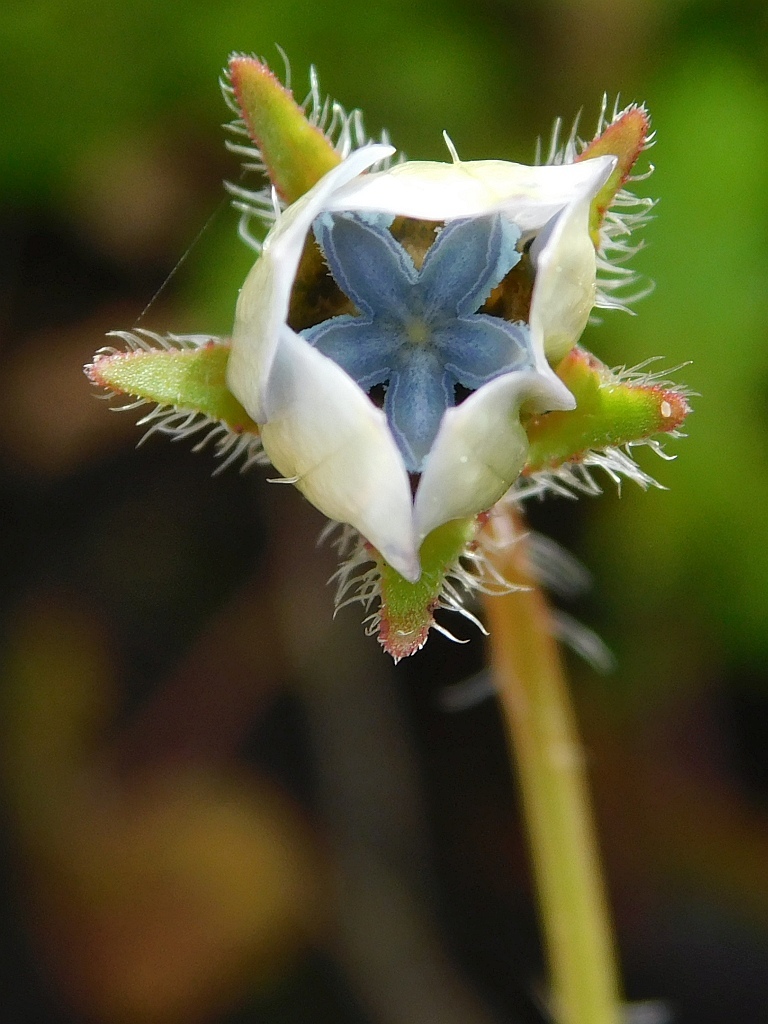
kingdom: Plantae
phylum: Tracheophyta
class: Magnoliopsida
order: Asterales
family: Campanulaceae
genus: Wahlenbergia
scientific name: Wahlenbergia capensis
